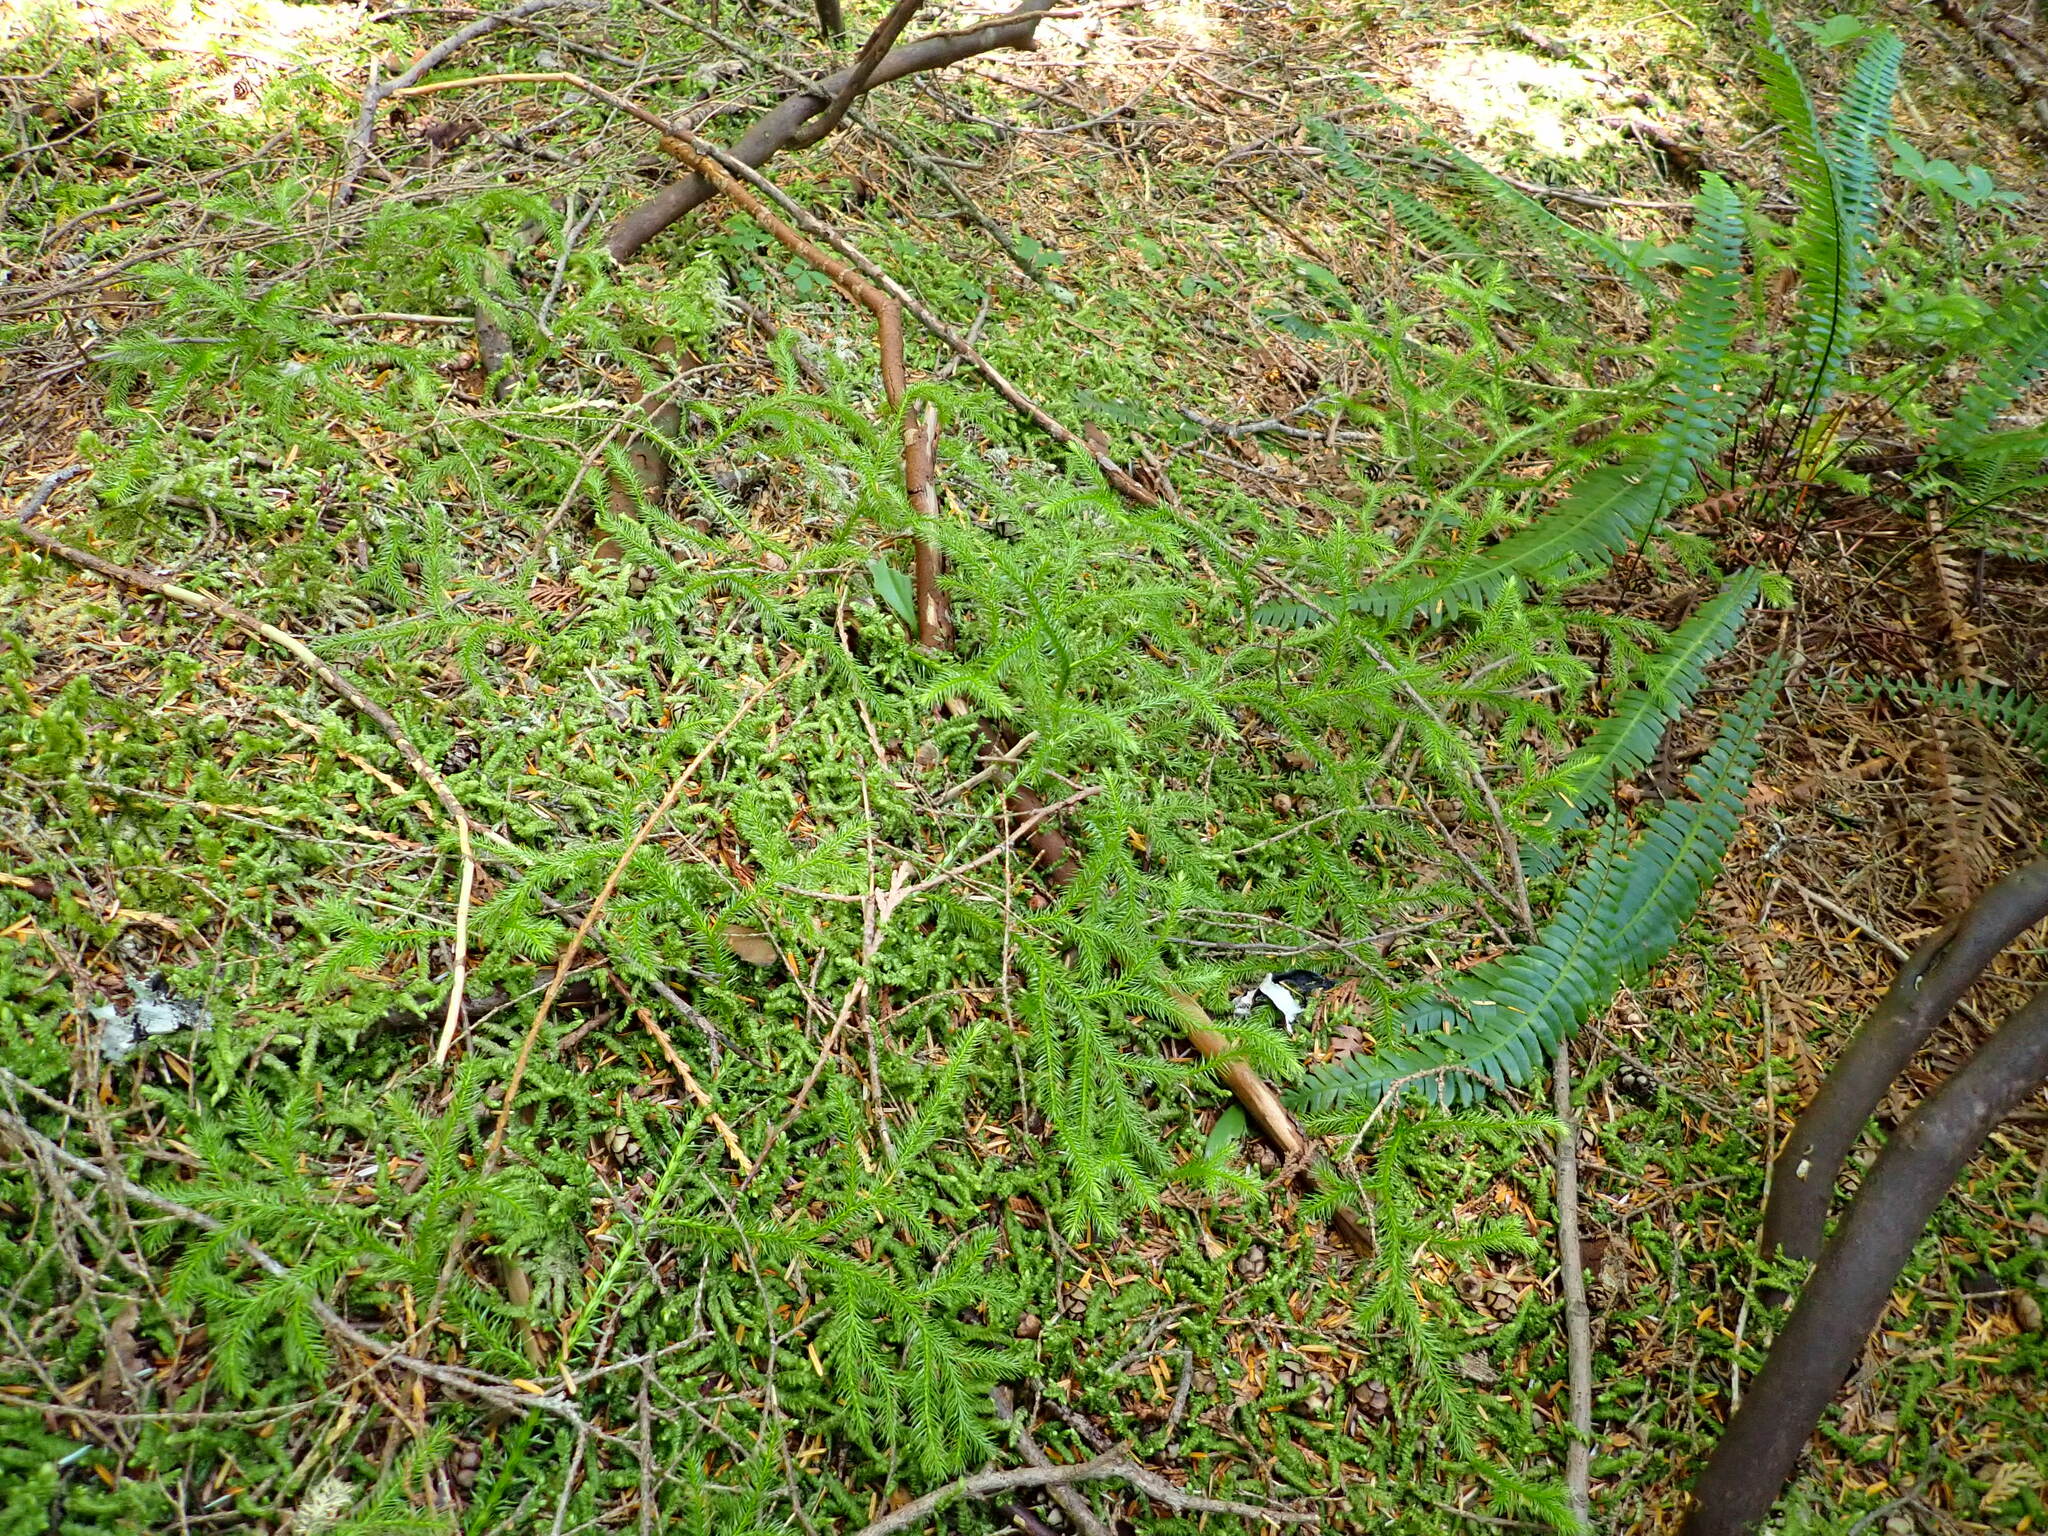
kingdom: Plantae
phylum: Tracheophyta
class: Lycopodiopsida
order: Lycopodiales
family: Lycopodiaceae
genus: Lycopodium
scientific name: Lycopodium clavatum
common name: Stag's-horn clubmoss
